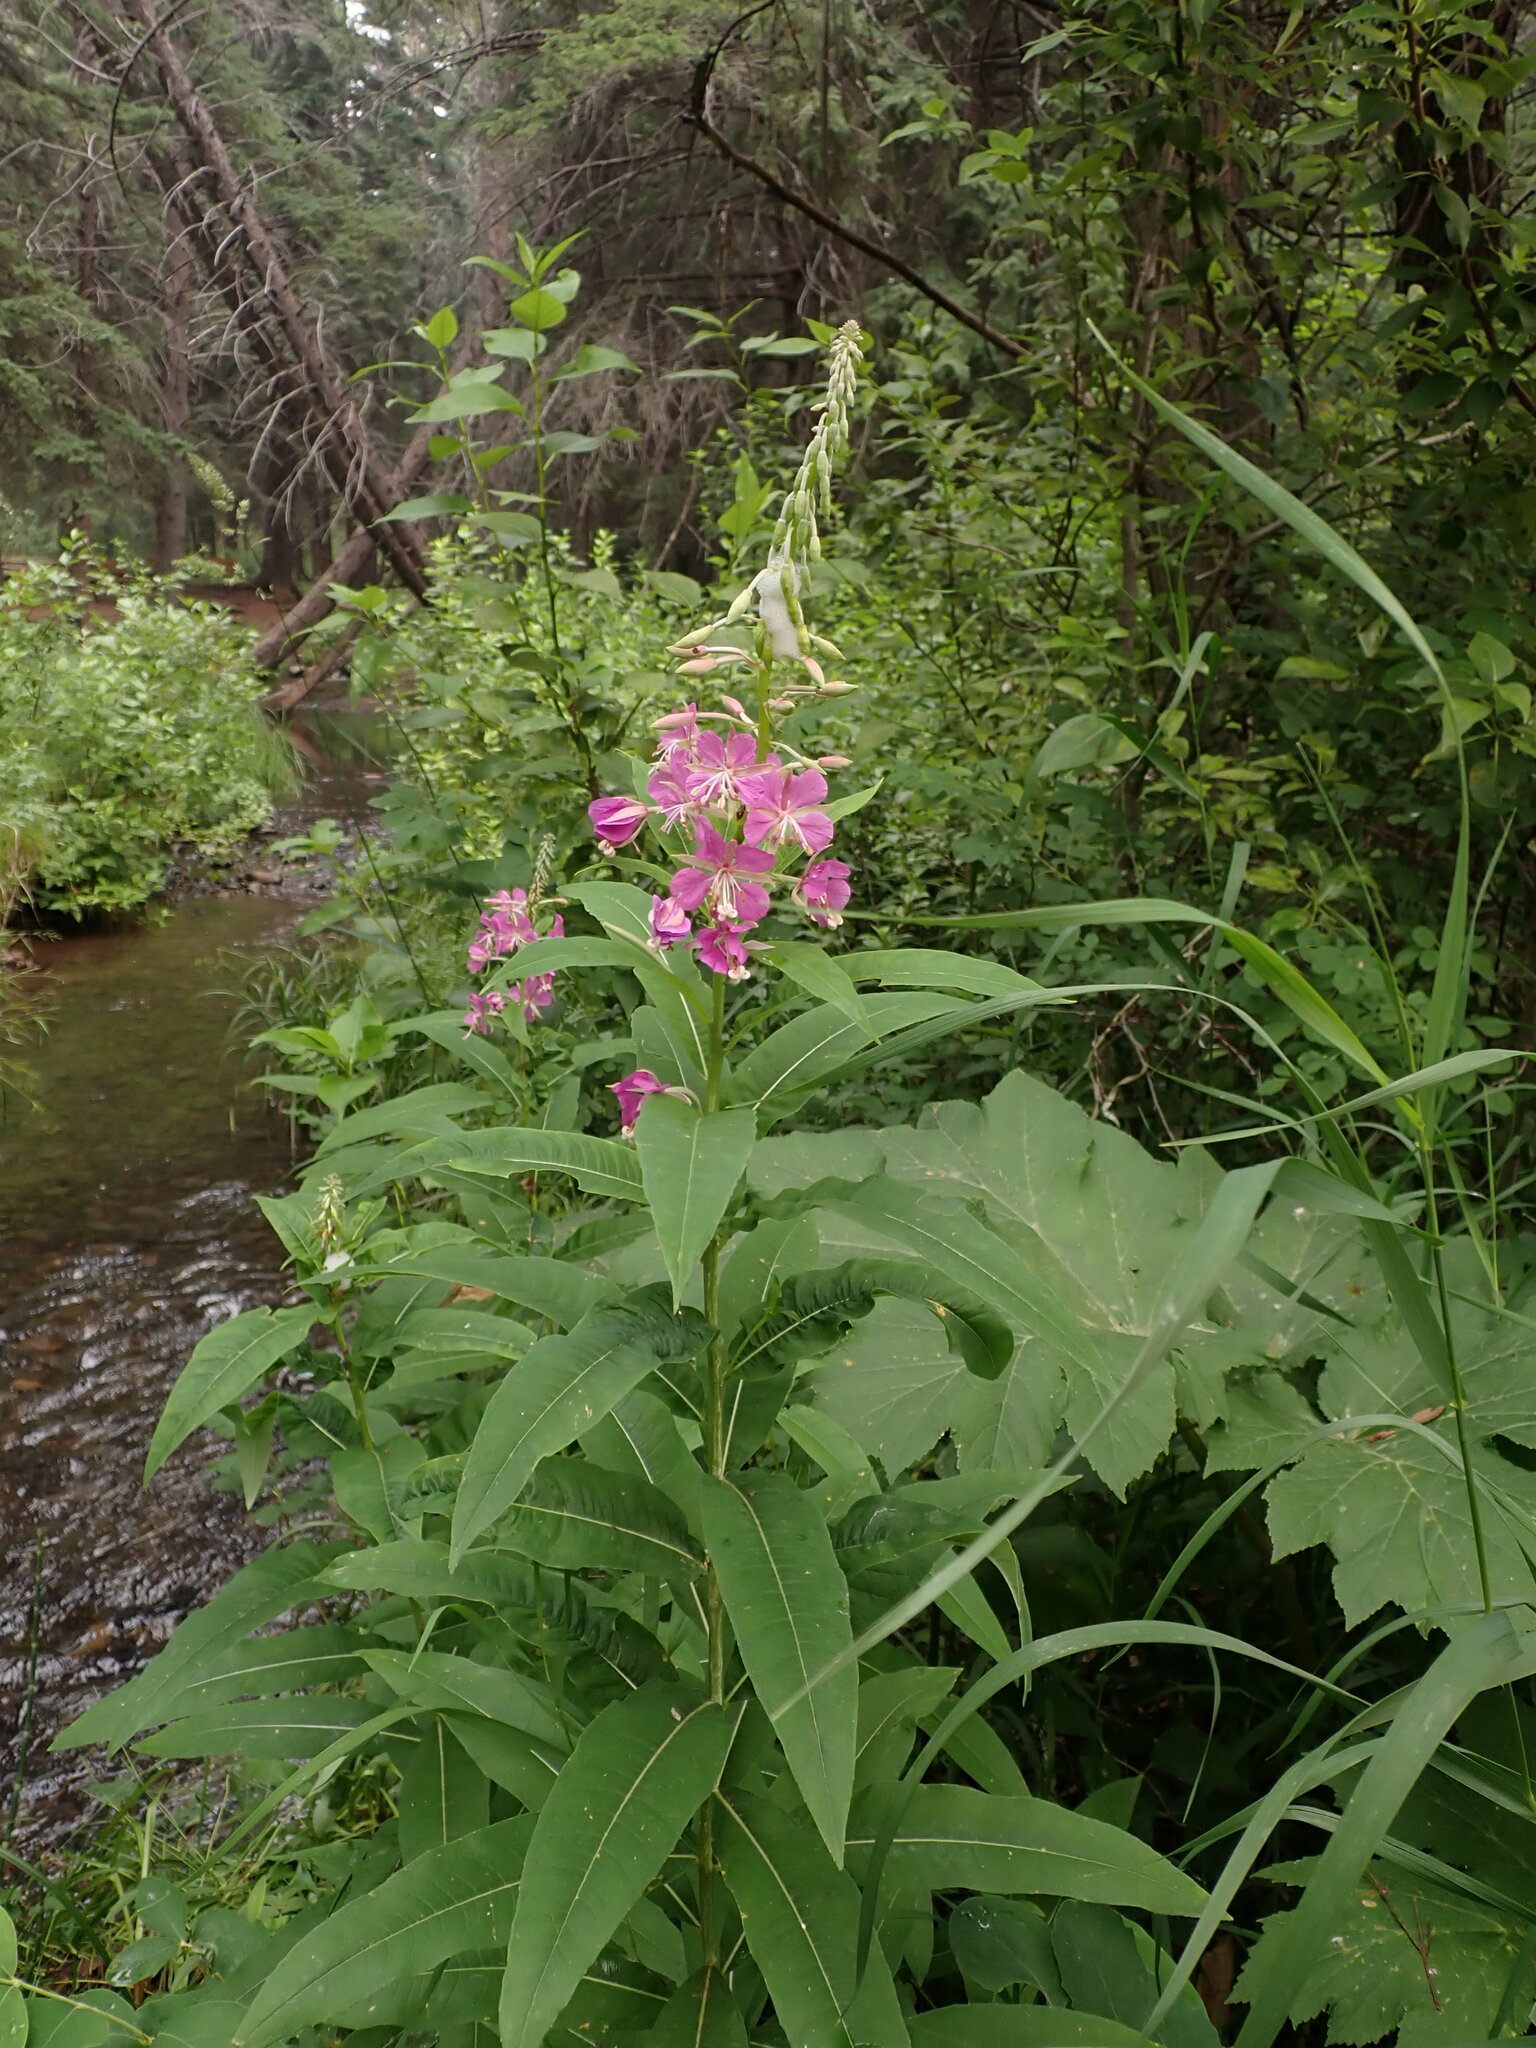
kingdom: Plantae
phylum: Tracheophyta
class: Magnoliopsida
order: Myrtales
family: Onagraceae
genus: Chamaenerion
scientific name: Chamaenerion angustifolium
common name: Fireweed
